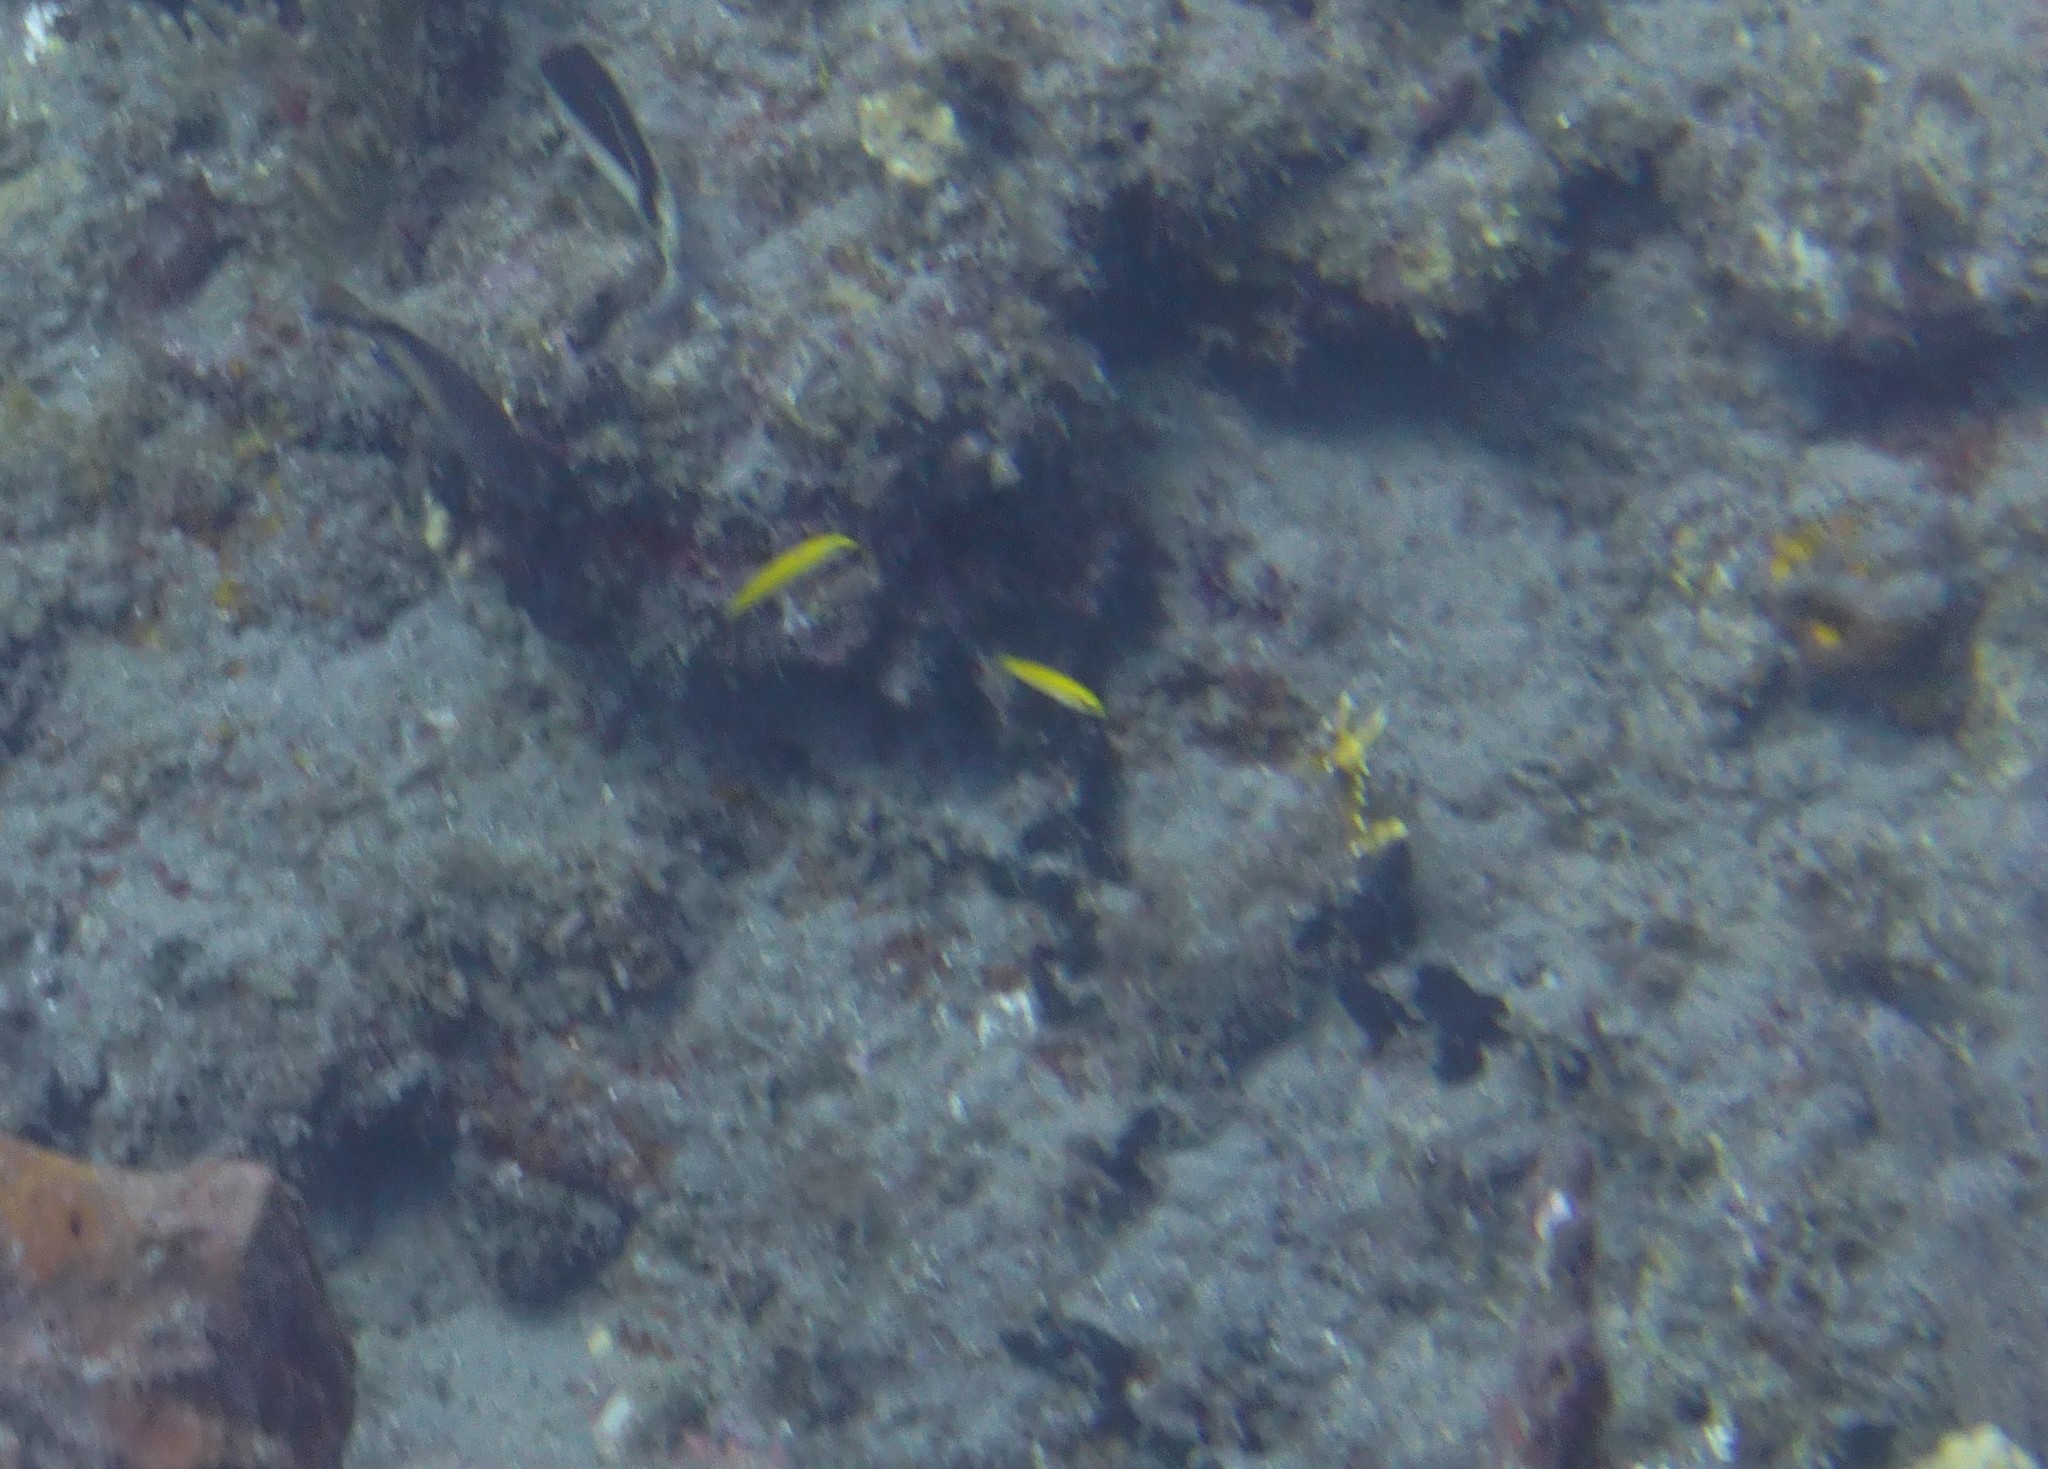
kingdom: Animalia
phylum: Chordata
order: Perciformes
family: Labridae
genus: Thalassoma
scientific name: Thalassoma bifasciatum
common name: Bluehead wrasse
